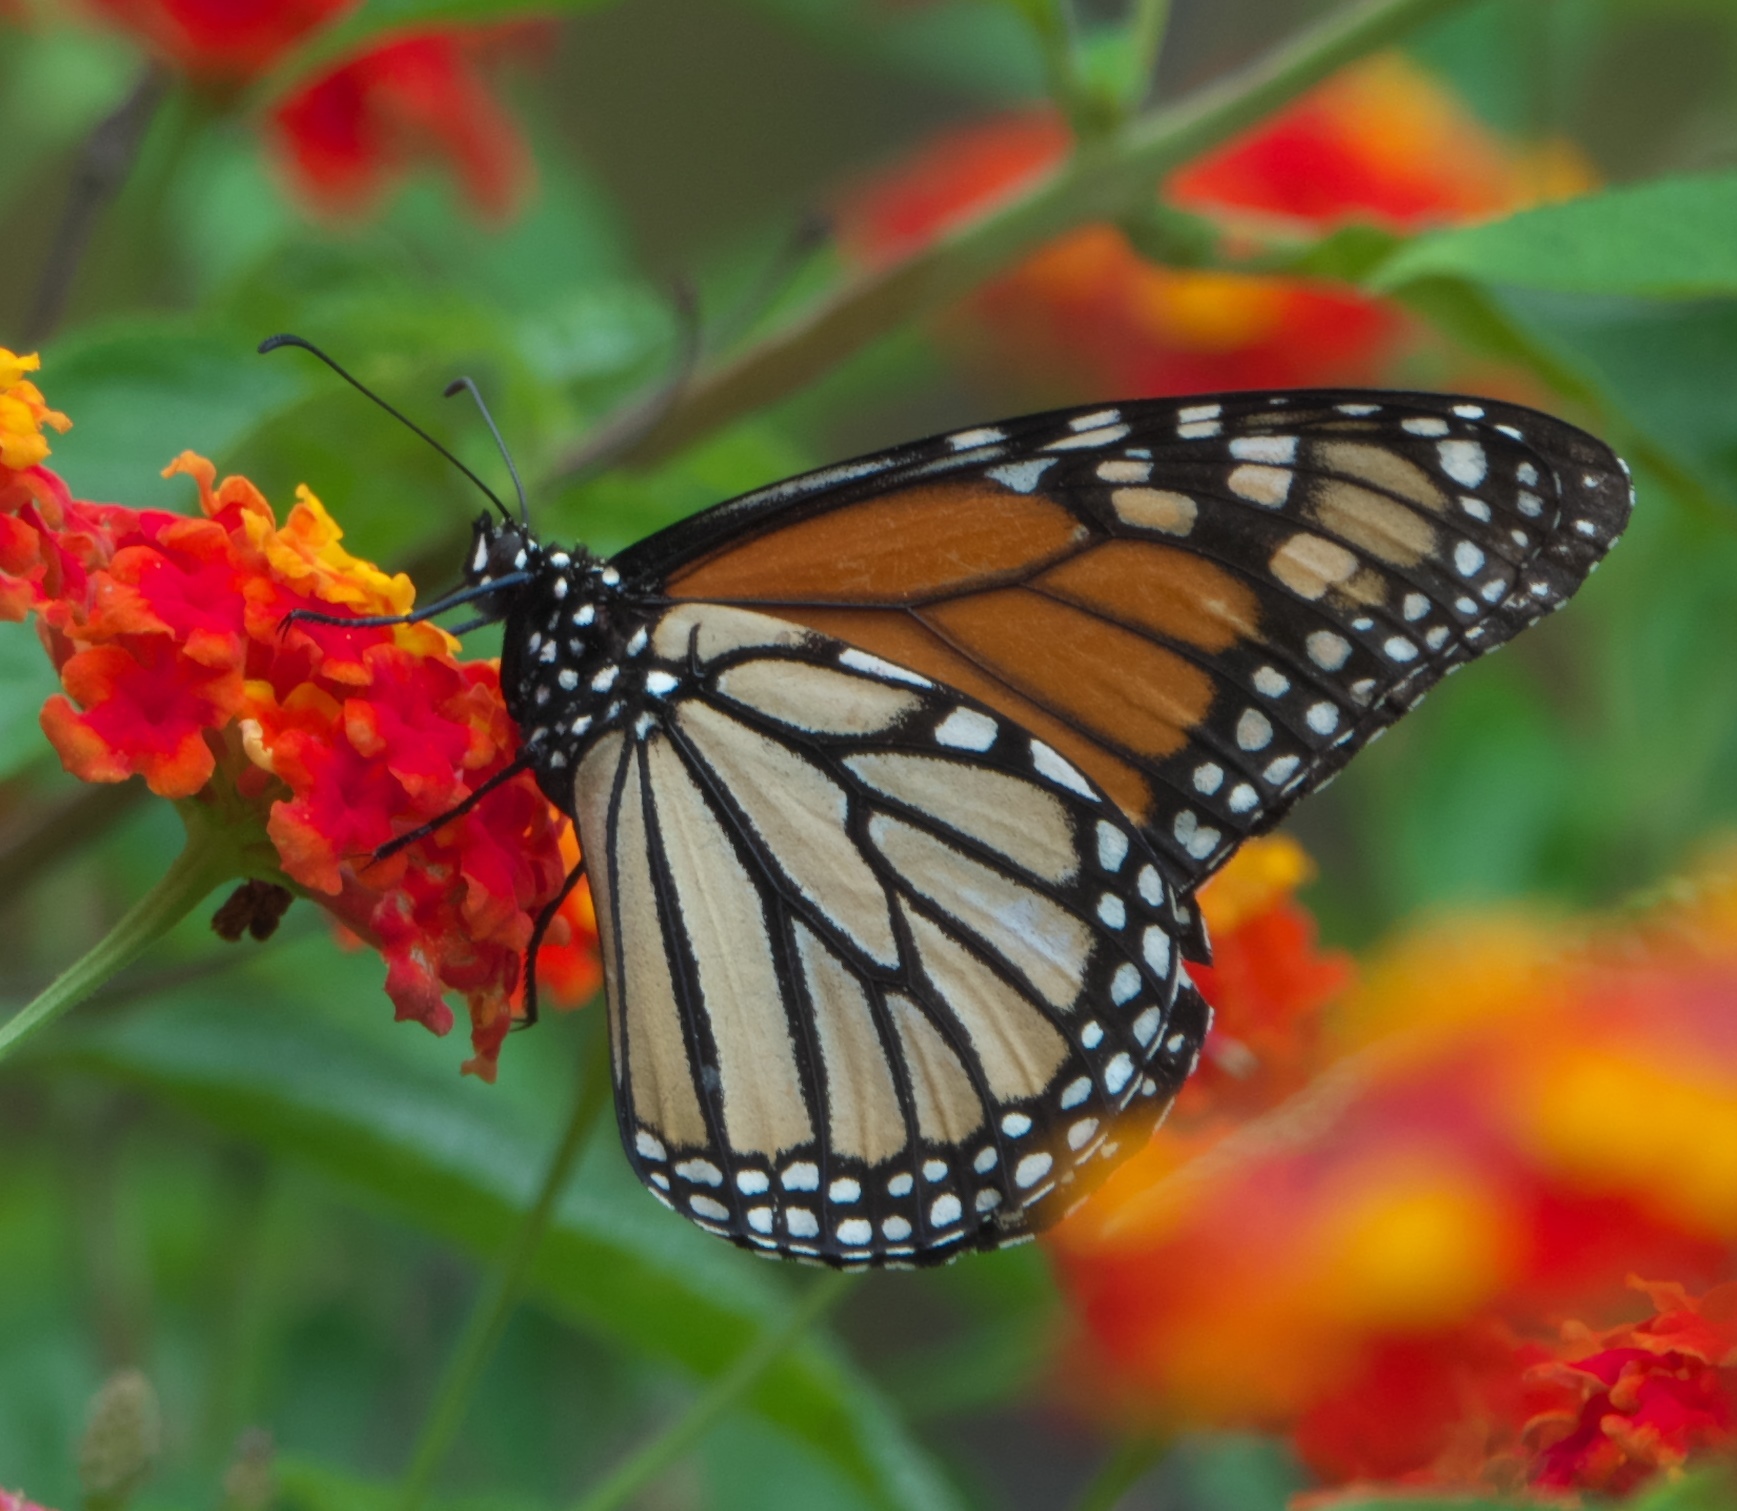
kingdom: Animalia
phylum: Arthropoda
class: Insecta
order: Lepidoptera
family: Nymphalidae
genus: Danaus
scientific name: Danaus plexippus
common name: Monarch
